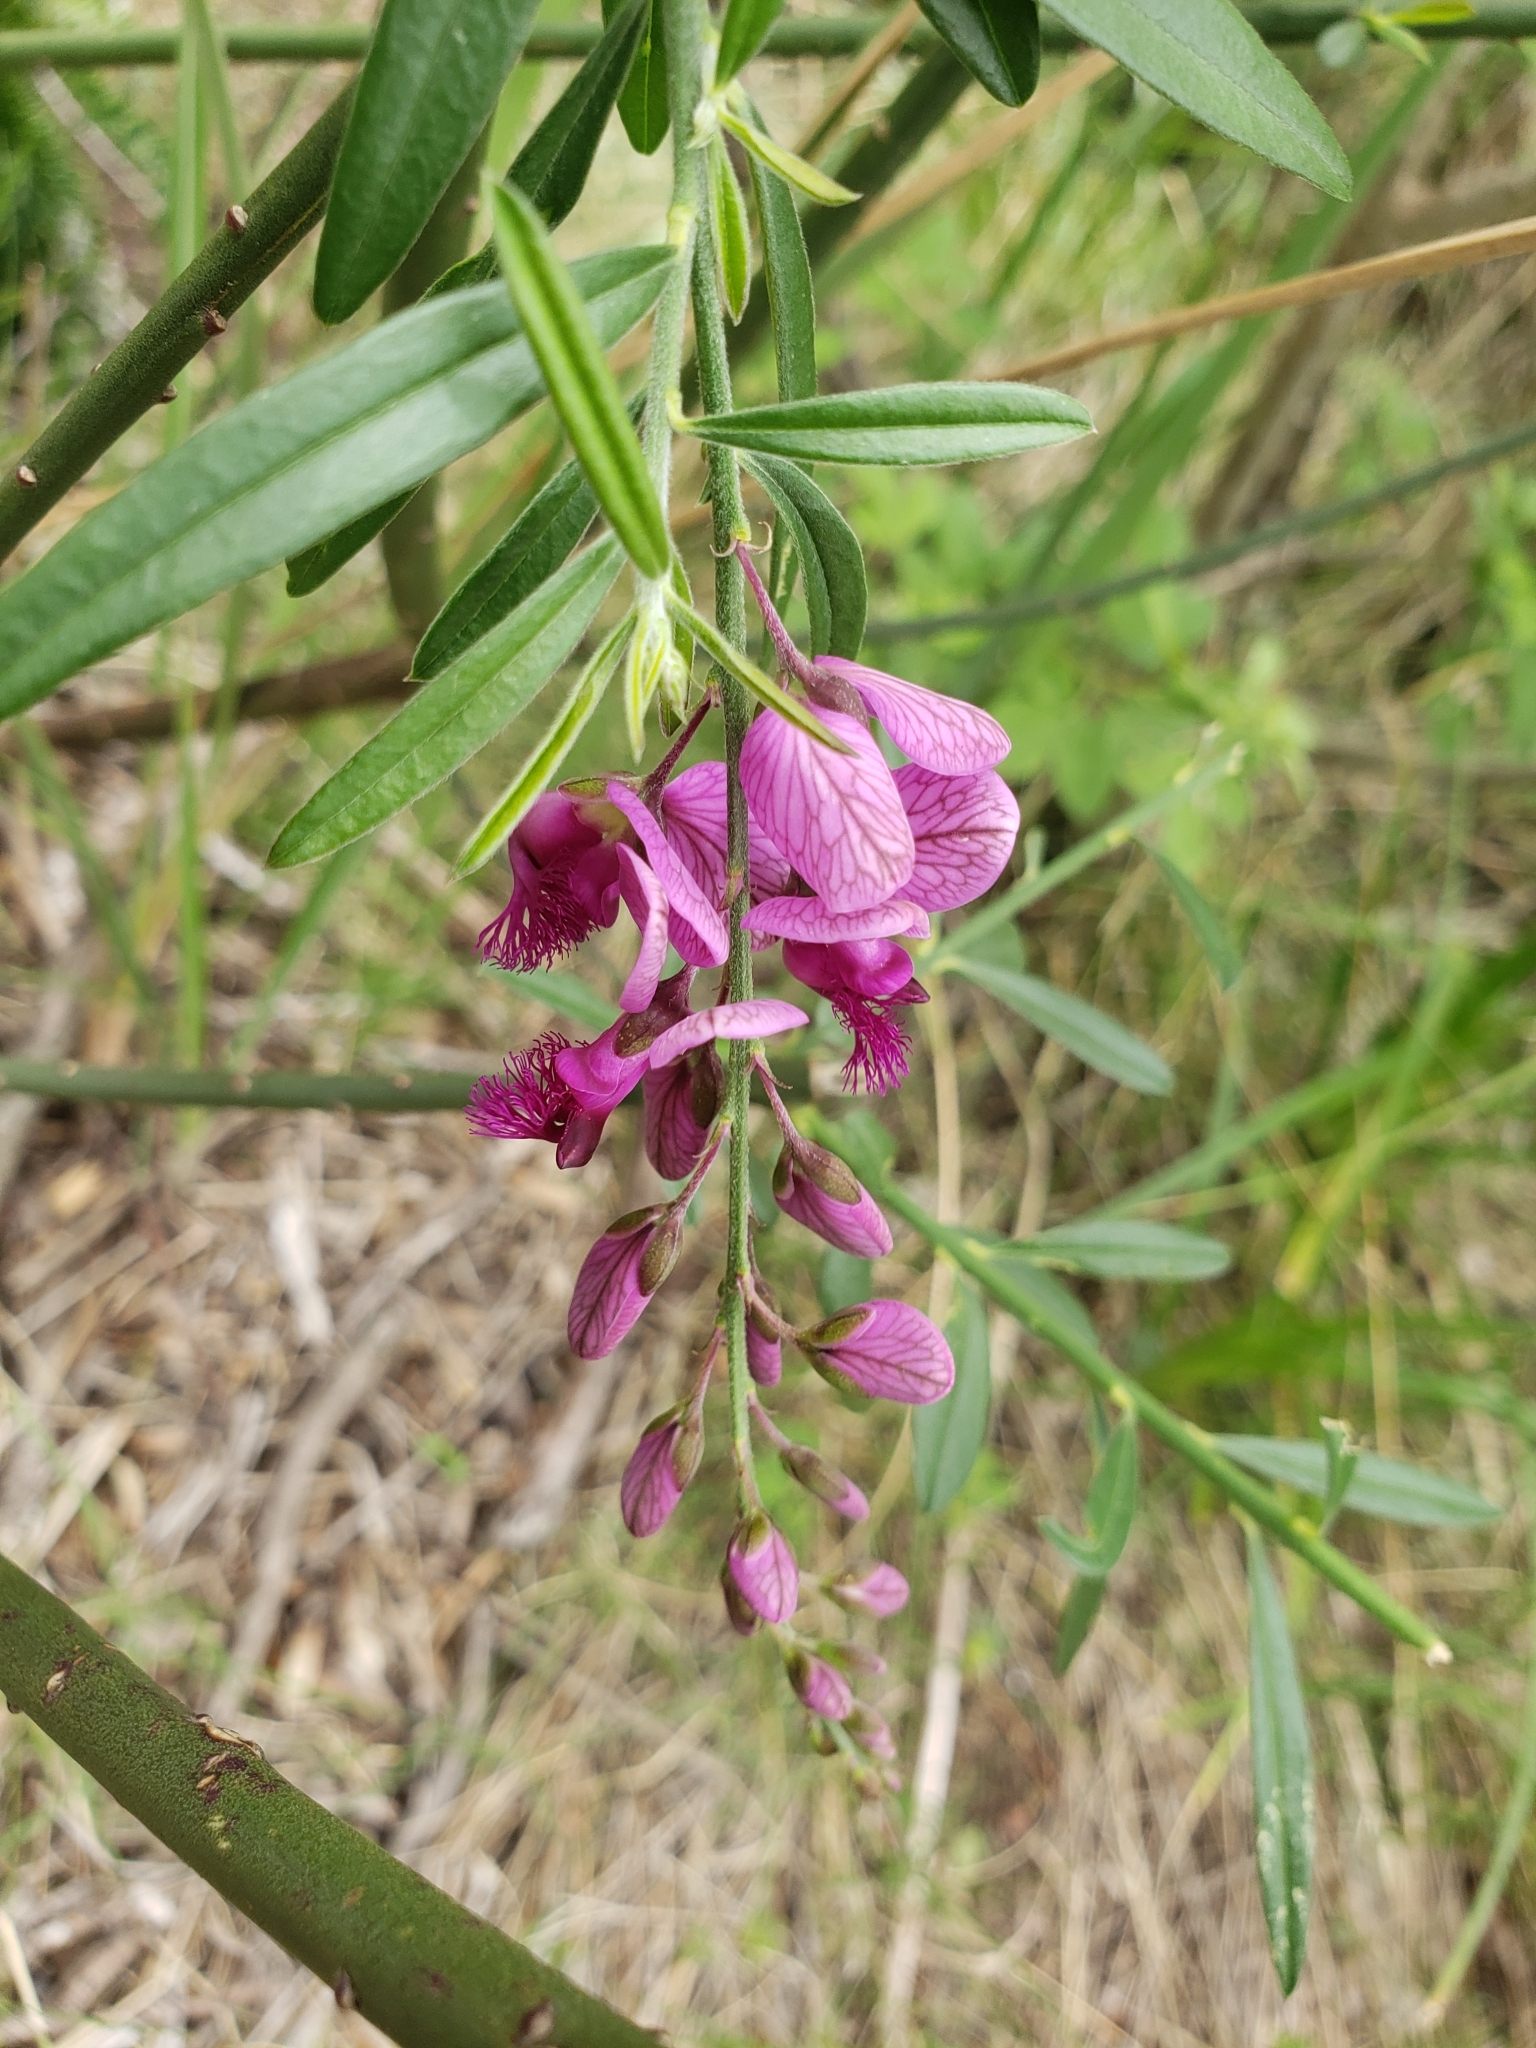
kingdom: Plantae
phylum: Tracheophyta
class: Magnoliopsida
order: Fabales
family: Polygalaceae
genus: Polygala
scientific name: Polygala virgata
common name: Milkwort
